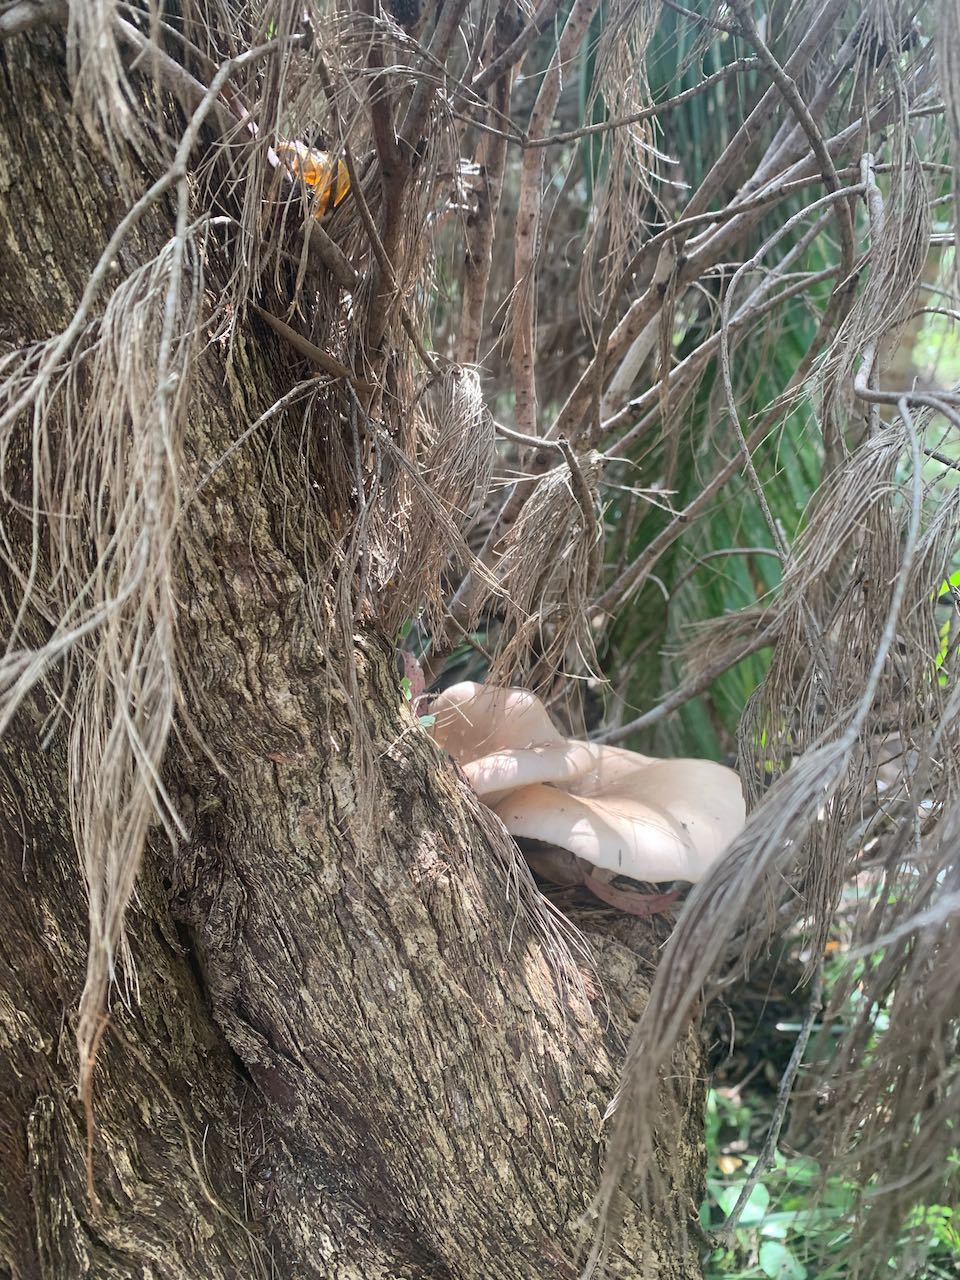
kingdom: Fungi
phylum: Basidiomycota
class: Agaricomycetes
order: Agaricales
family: Omphalotaceae
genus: Omphalotus
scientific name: Omphalotus nidiformis
